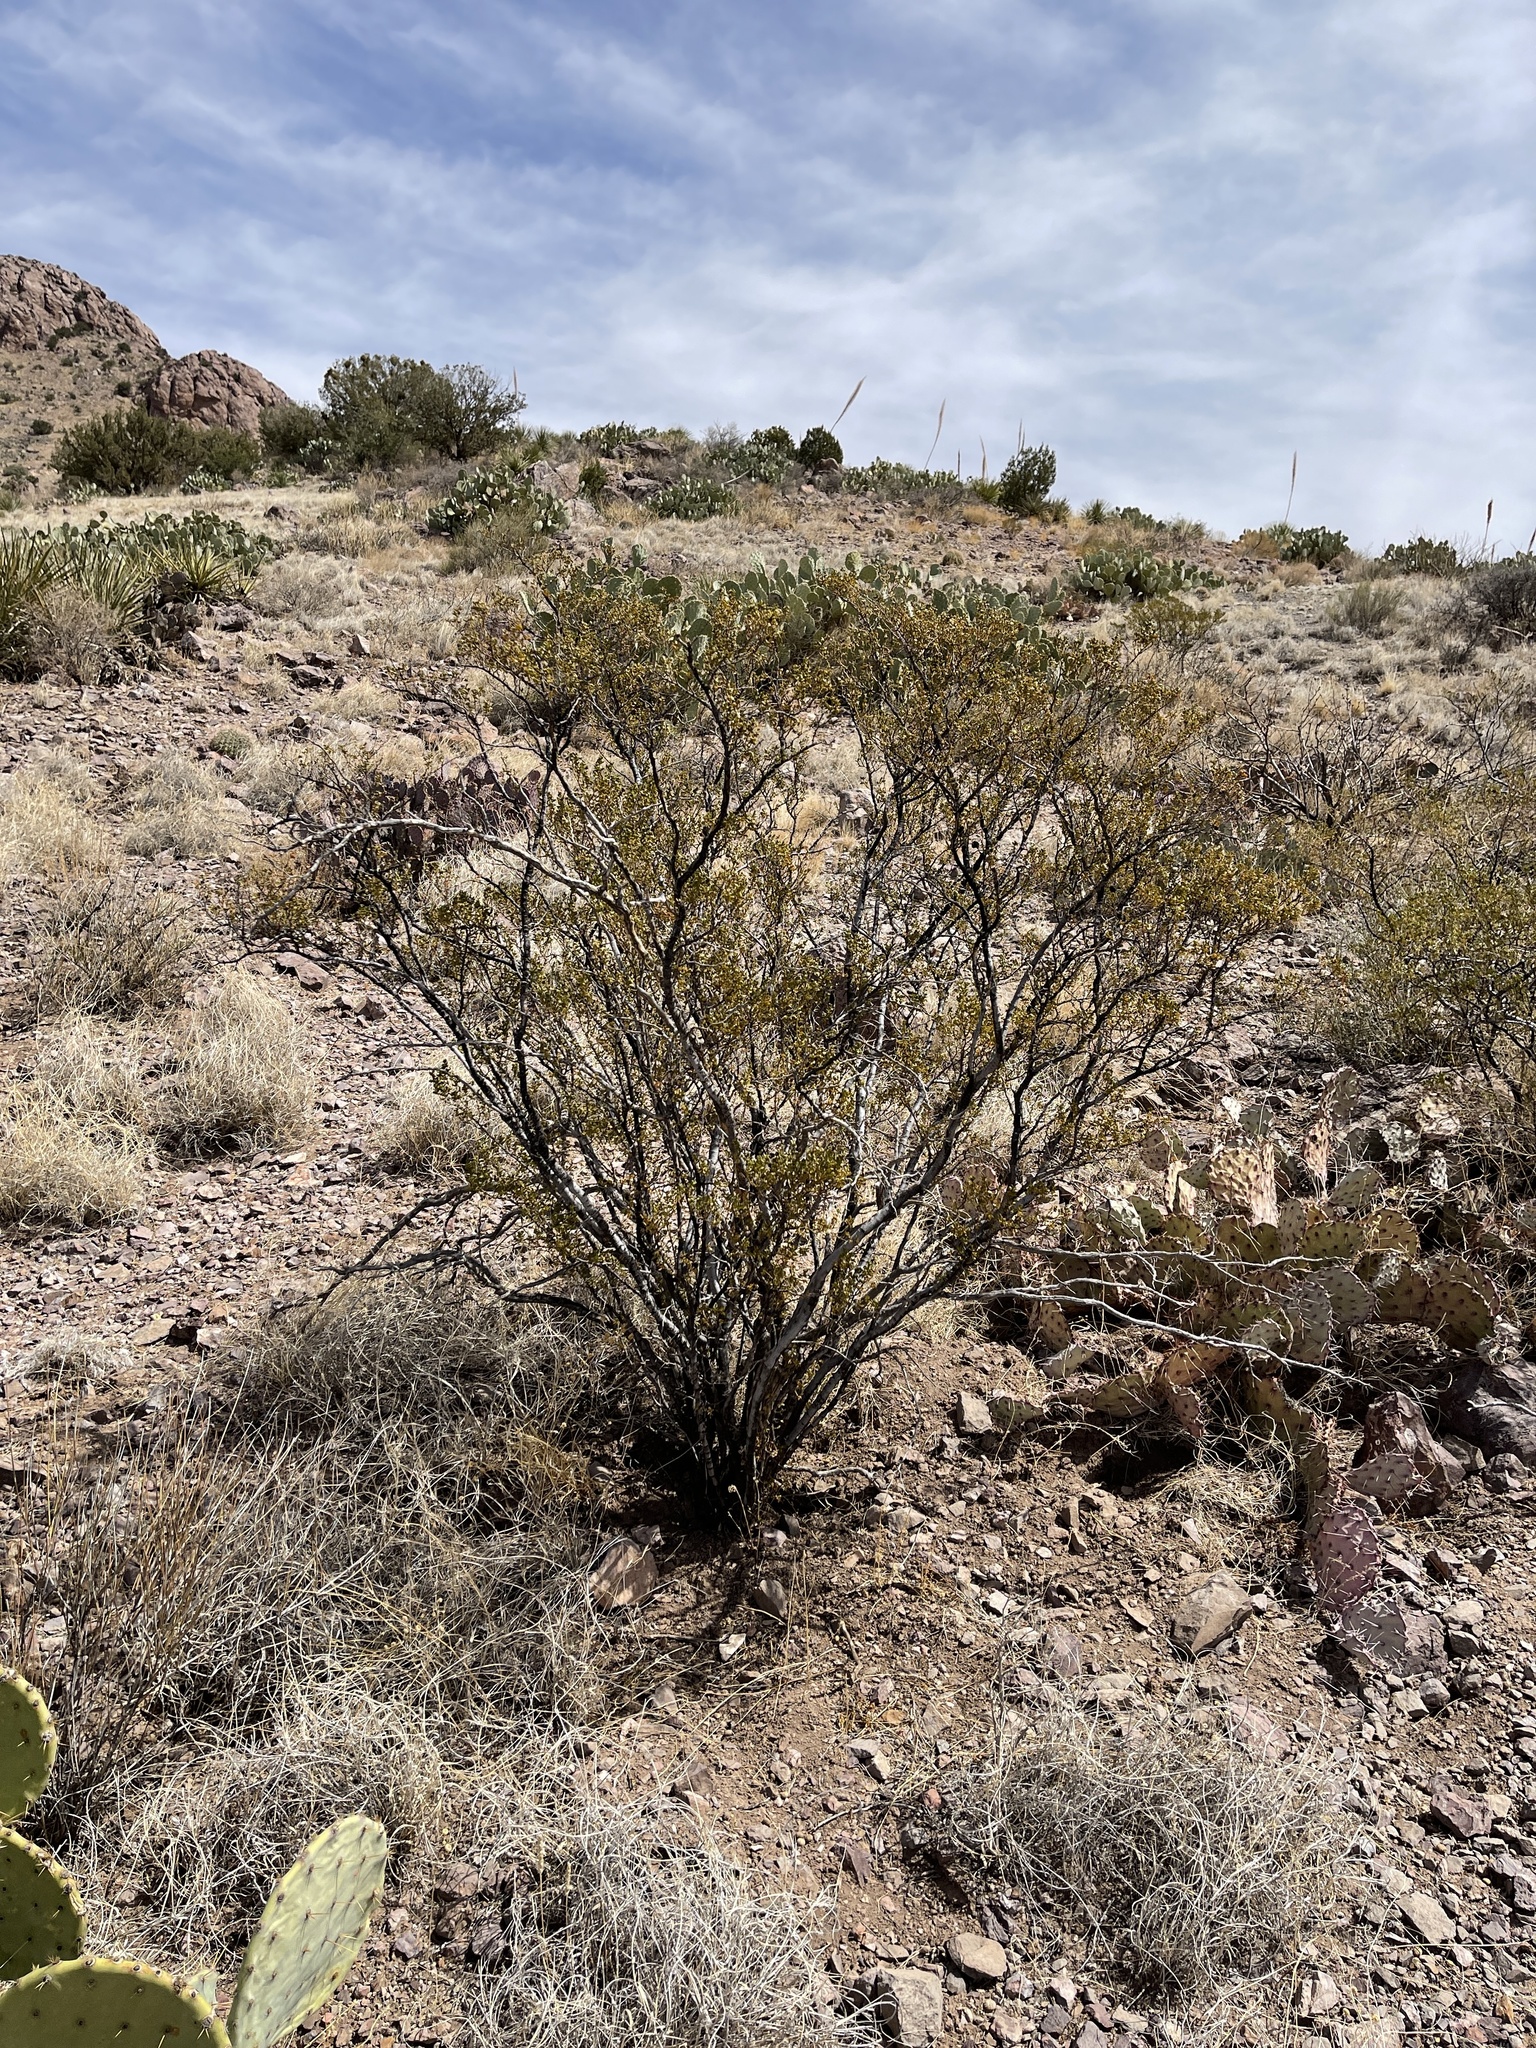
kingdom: Plantae
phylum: Tracheophyta
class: Magnoliopsida
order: Zygophyllales
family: Zygophyllaceae
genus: Larrea
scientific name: Larrea tridentata
